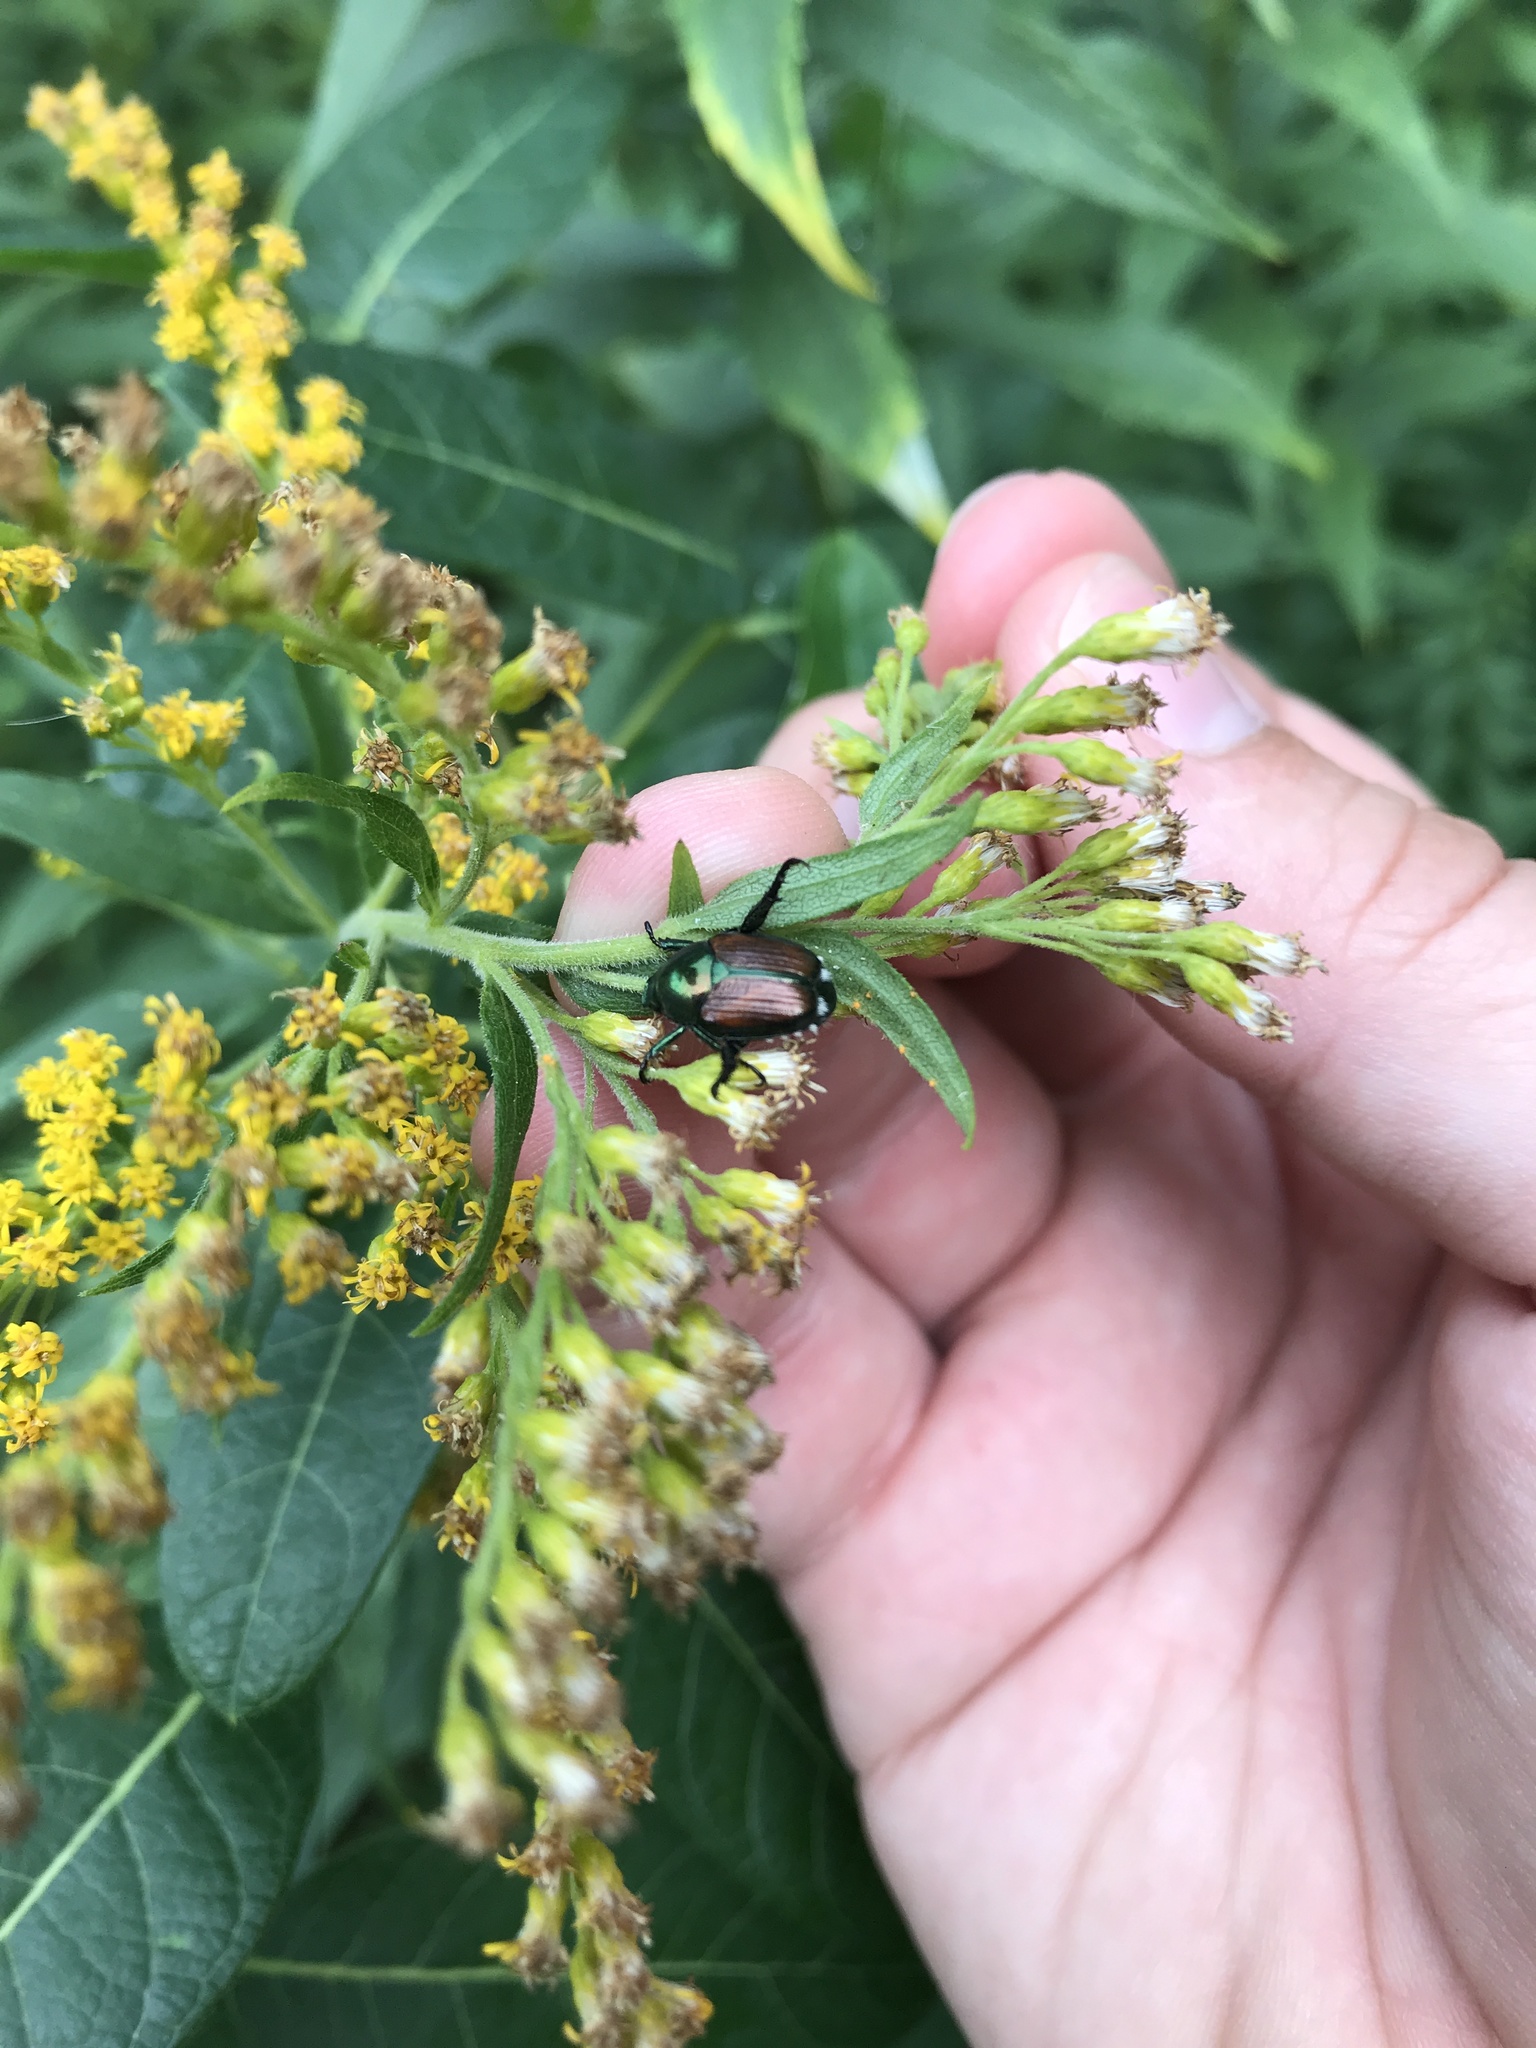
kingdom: Animalia
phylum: Arthropoda
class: Insecta
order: Coleoptera
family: Scarabaeidae
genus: Popillia
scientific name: Popillia japonica
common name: Japanese beetle
